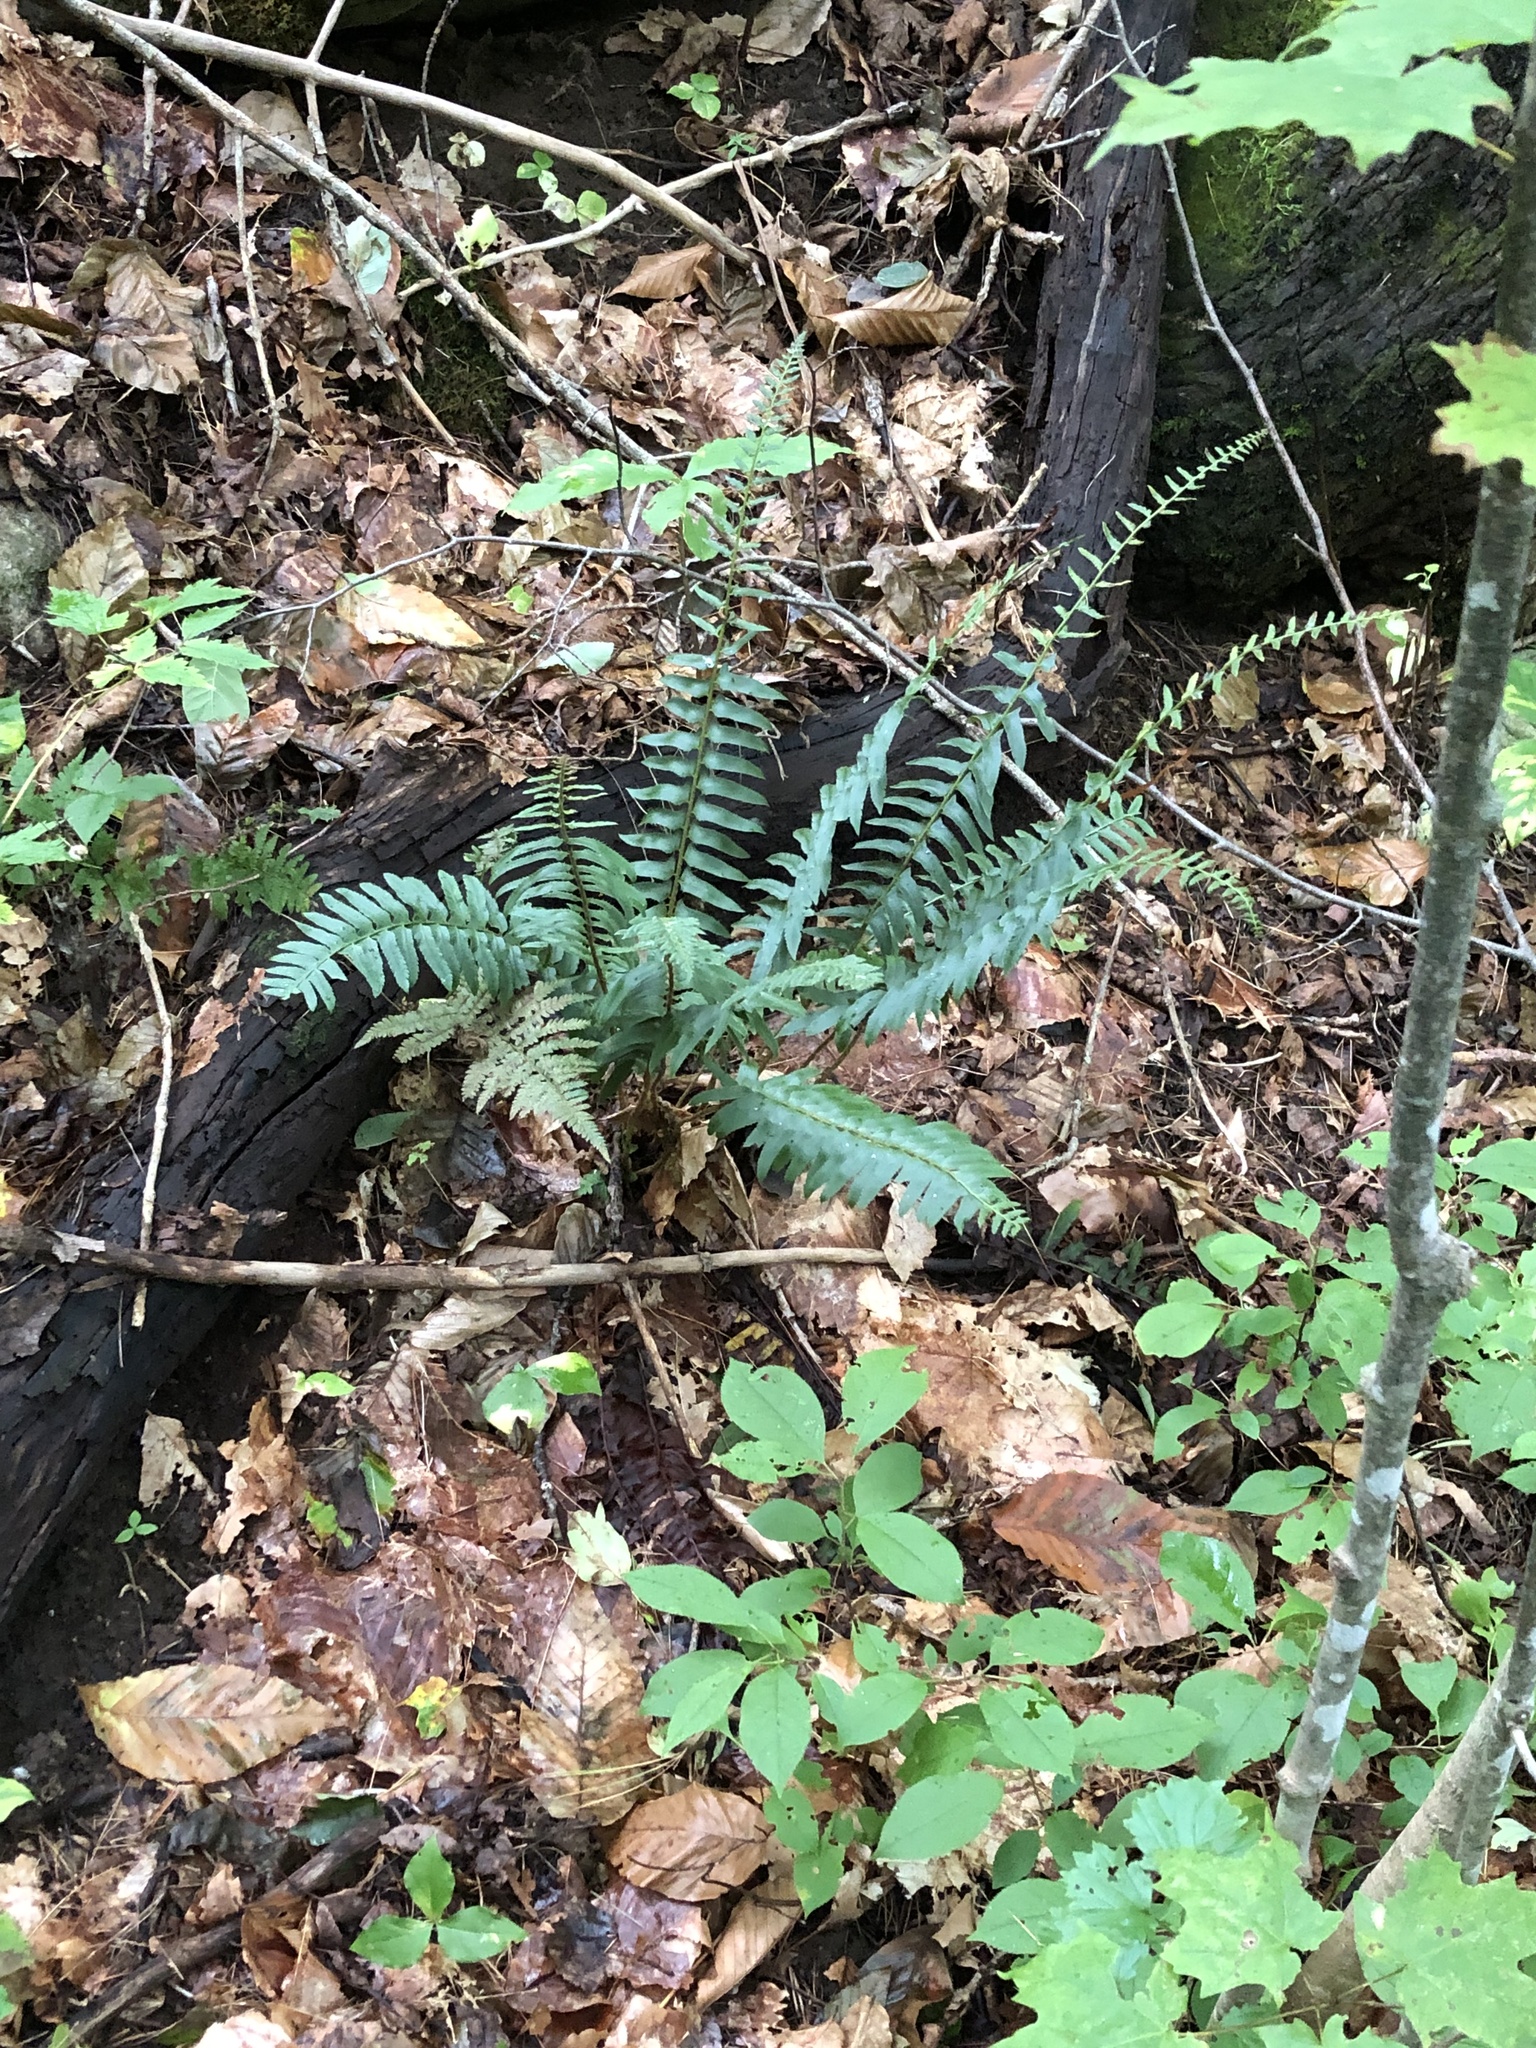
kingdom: Plantae
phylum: Tracheophyta
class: Polypodiopsida
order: Polypodiales
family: Dryopteridaceae
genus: Polystichum
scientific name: Polystichum acrostichoides
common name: Christmas fern
